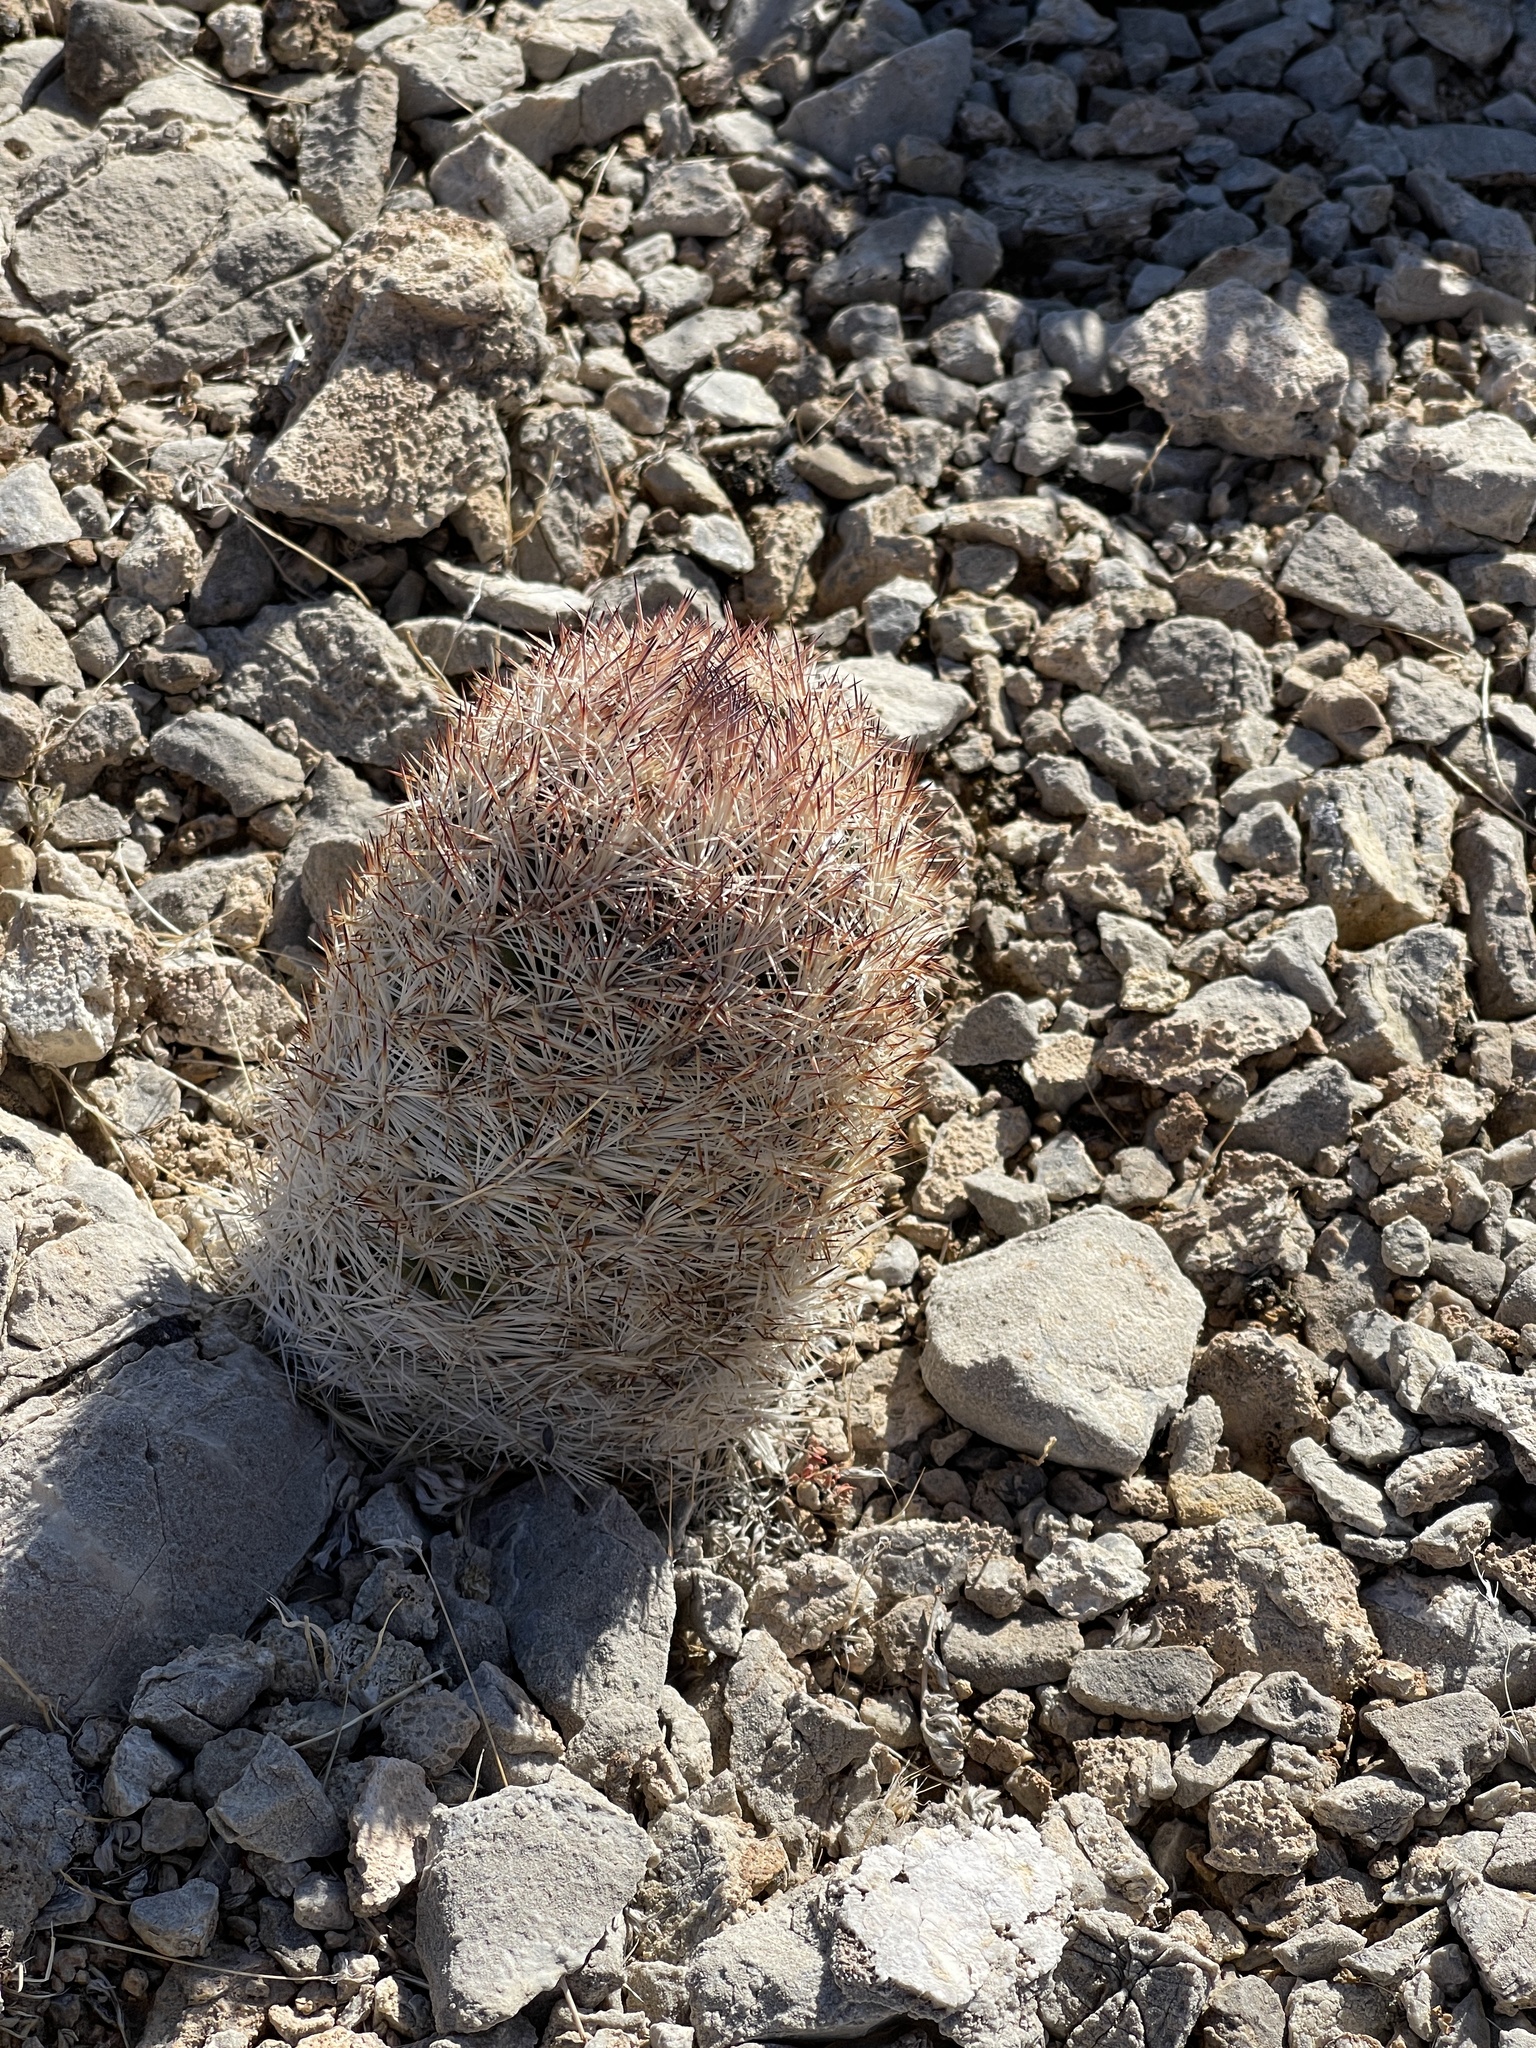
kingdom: Plantae
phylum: Tracheophyta
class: Magnoliopsida
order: Caryophyllales
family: Cactaceae
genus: Pelecyphora
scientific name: Pelecyphora dasyacantha
